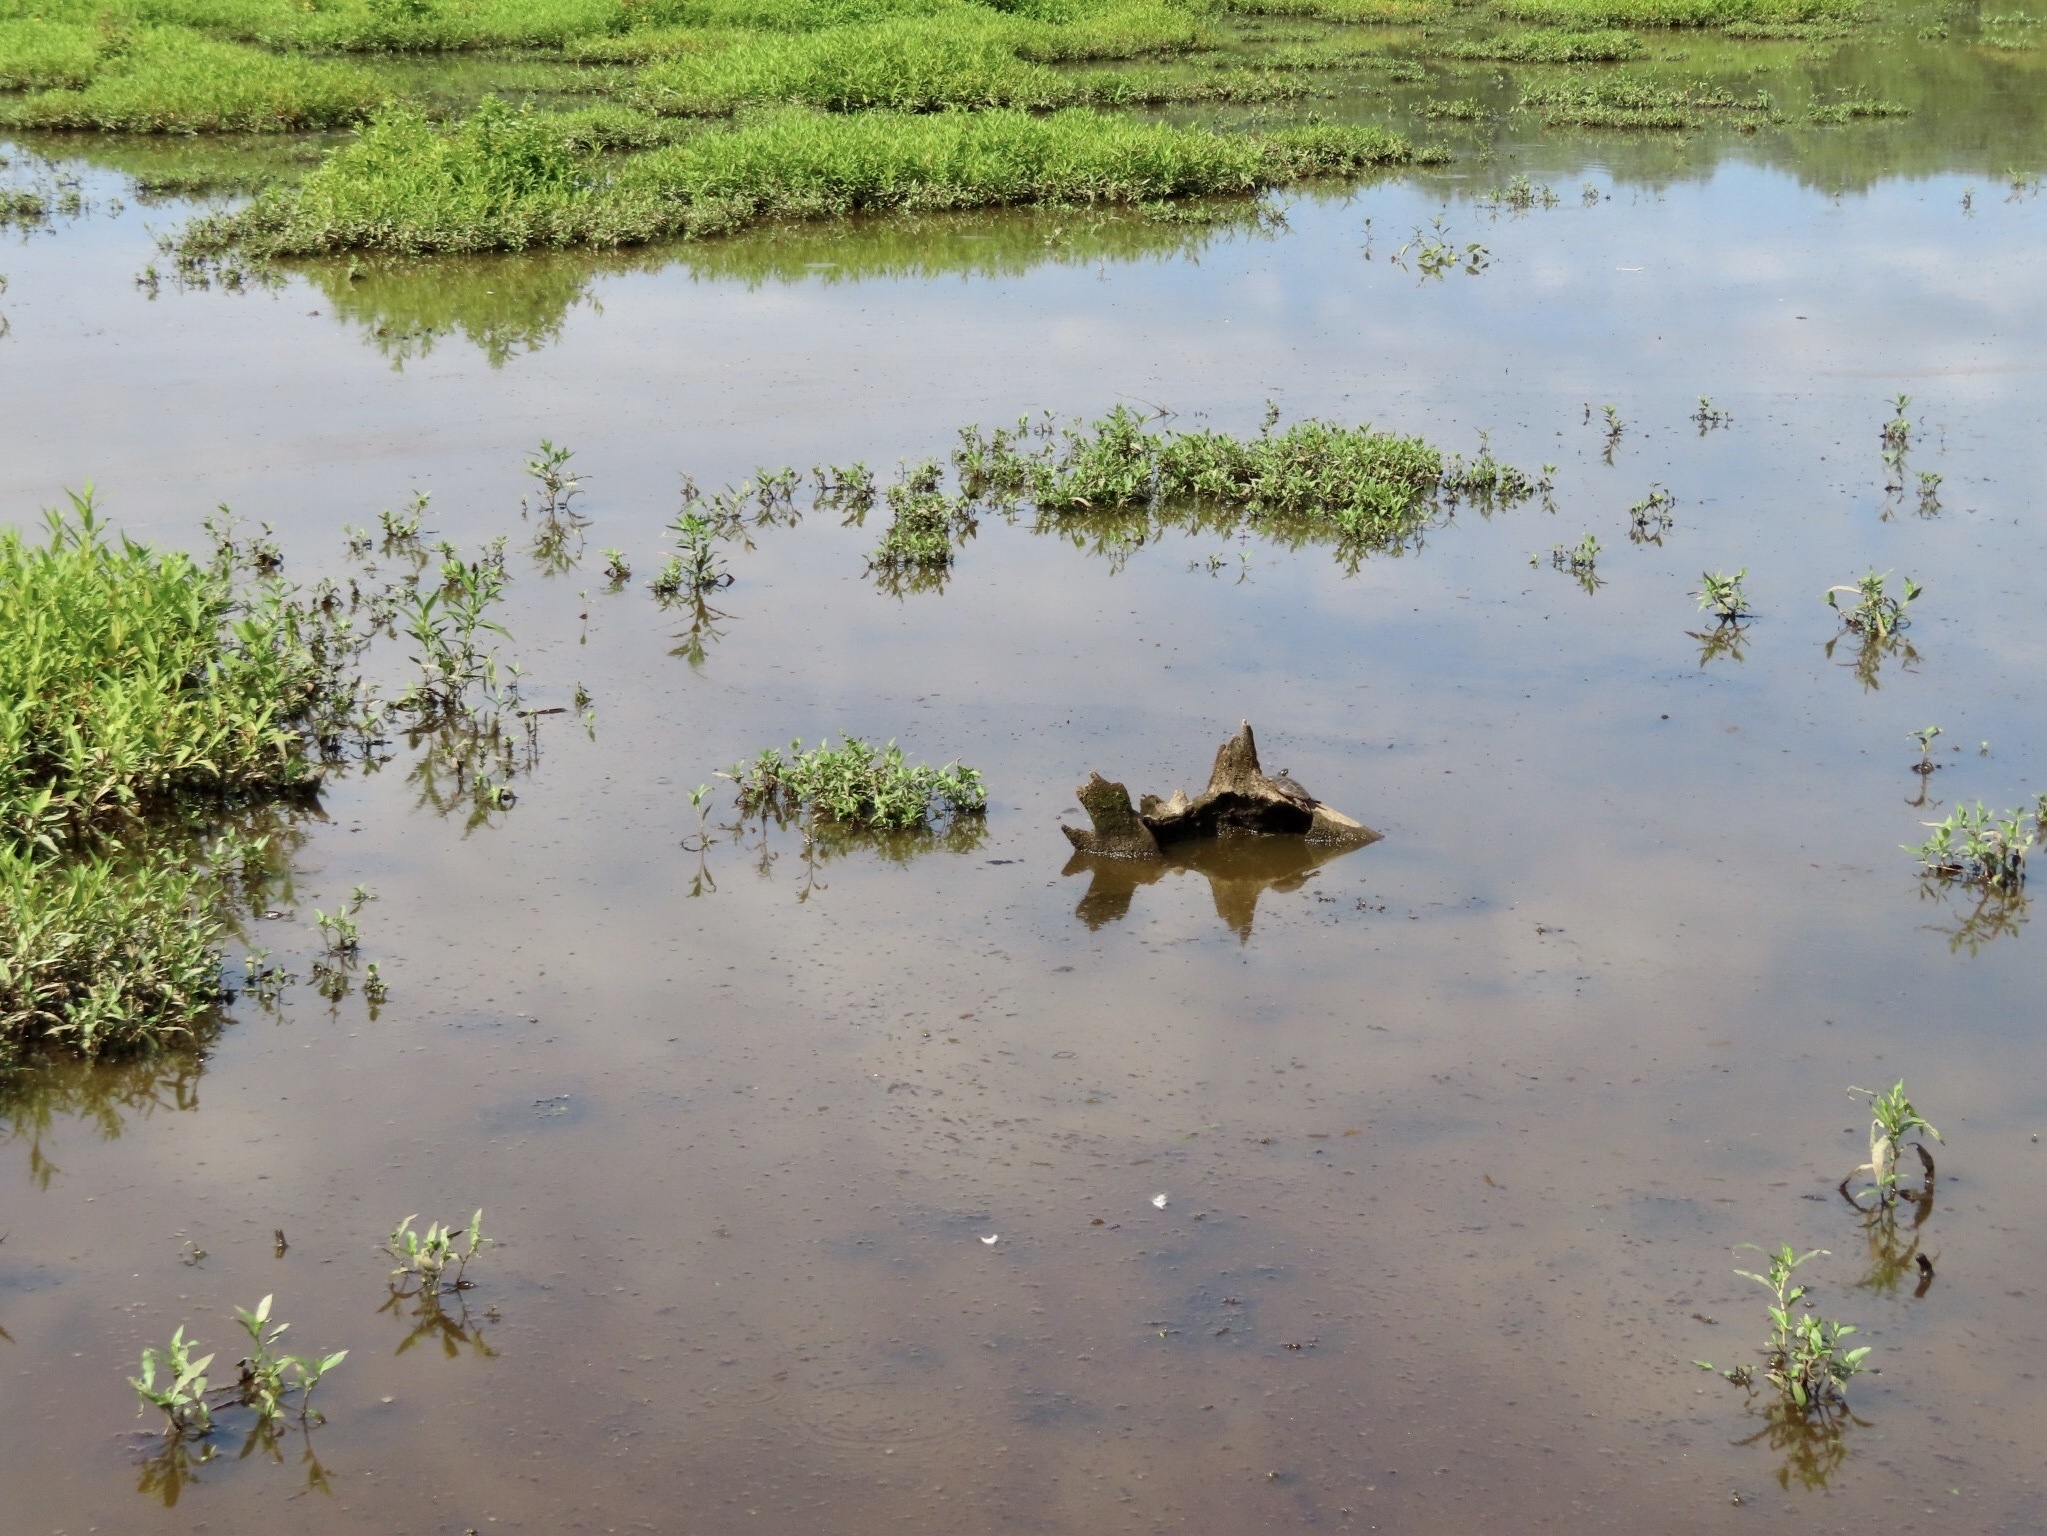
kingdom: Animalia
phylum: Chordata
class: Testudines
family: Emydidae
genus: Chrysemys
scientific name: Chrysemys picta
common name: Painted turtle
